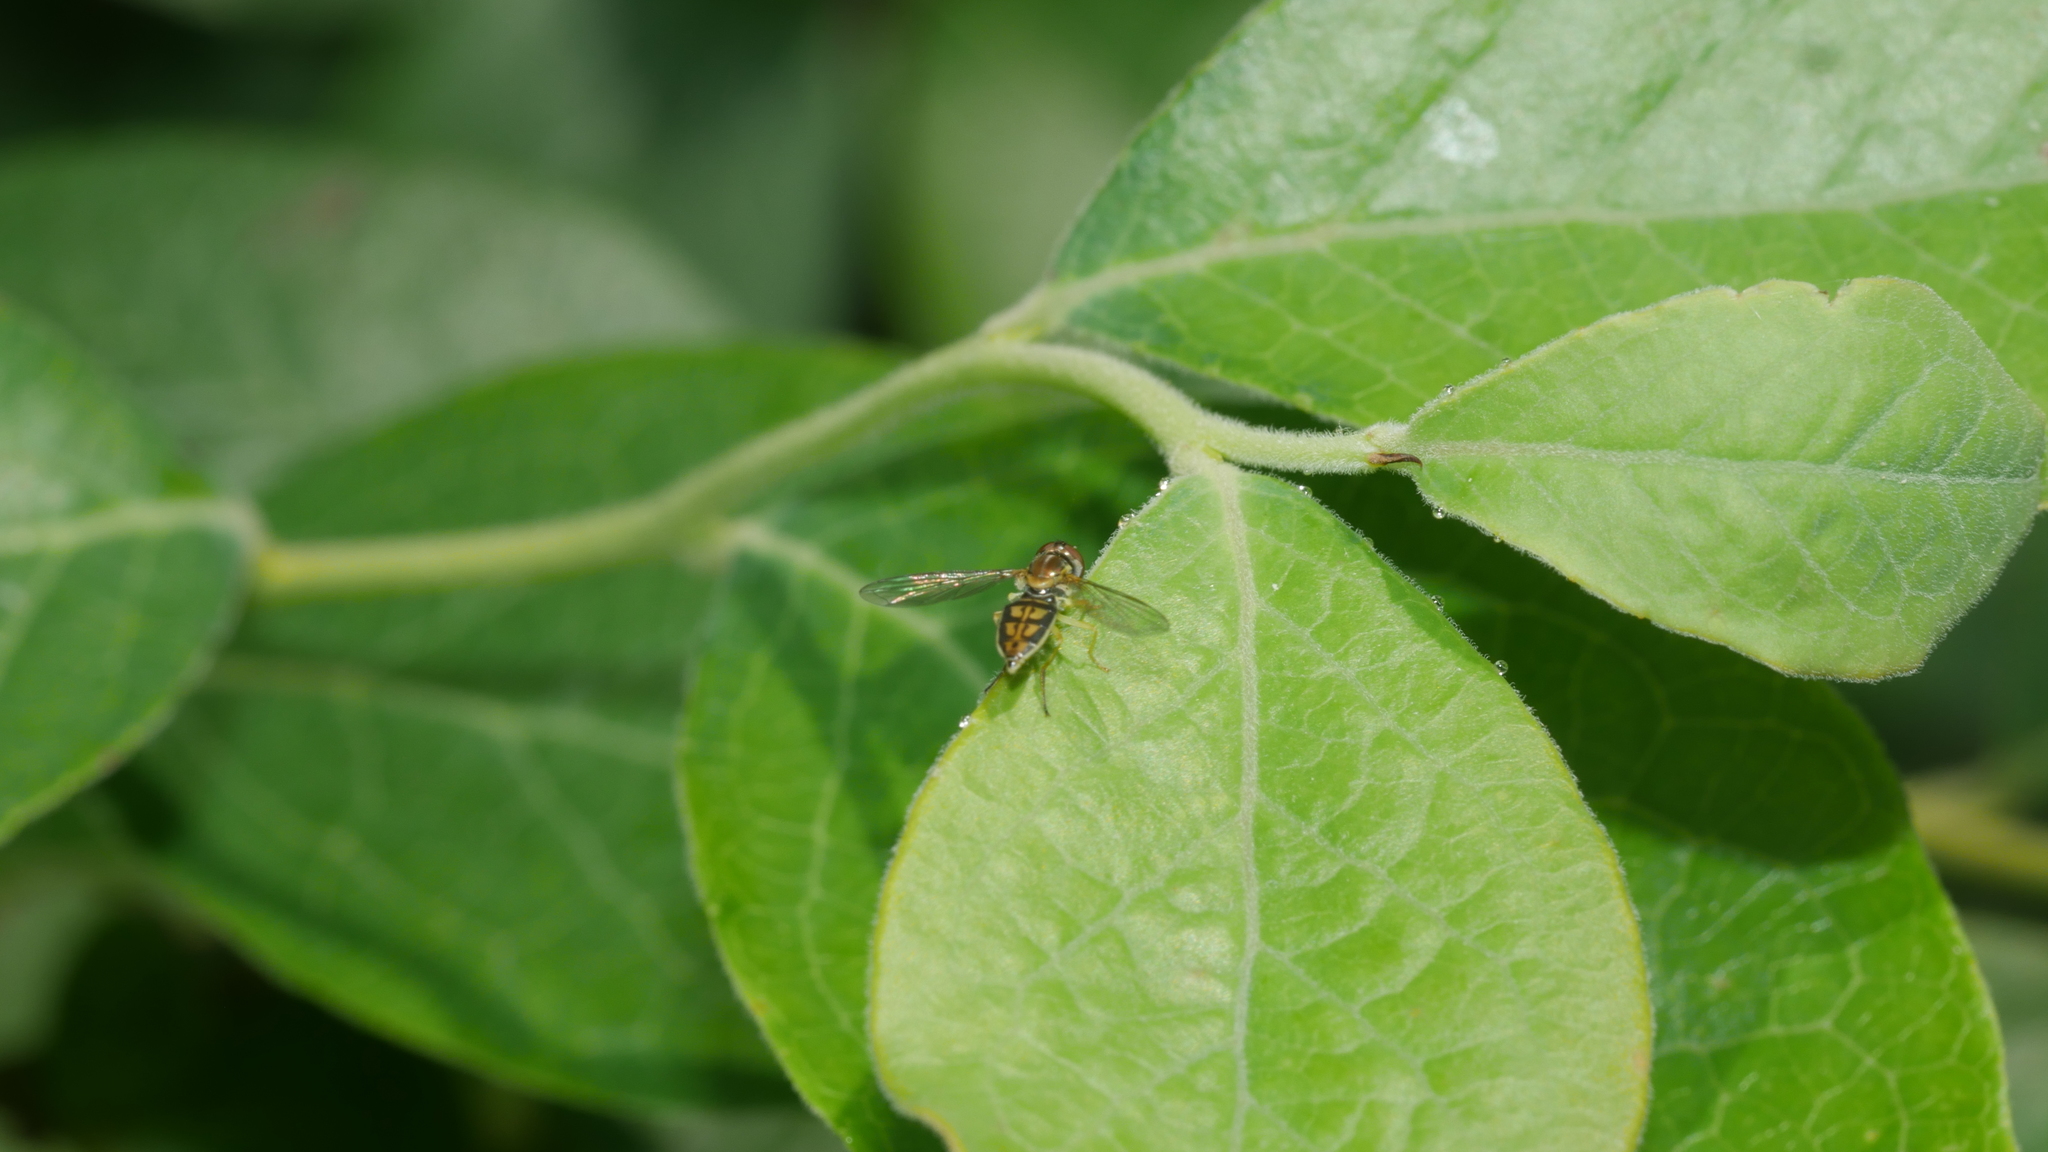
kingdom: Animalia
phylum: Arthropoda
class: Insecta
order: Diptera
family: Syrphidae
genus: Toxomerus
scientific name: Toxomerus marginatus
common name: Syrphid fly
